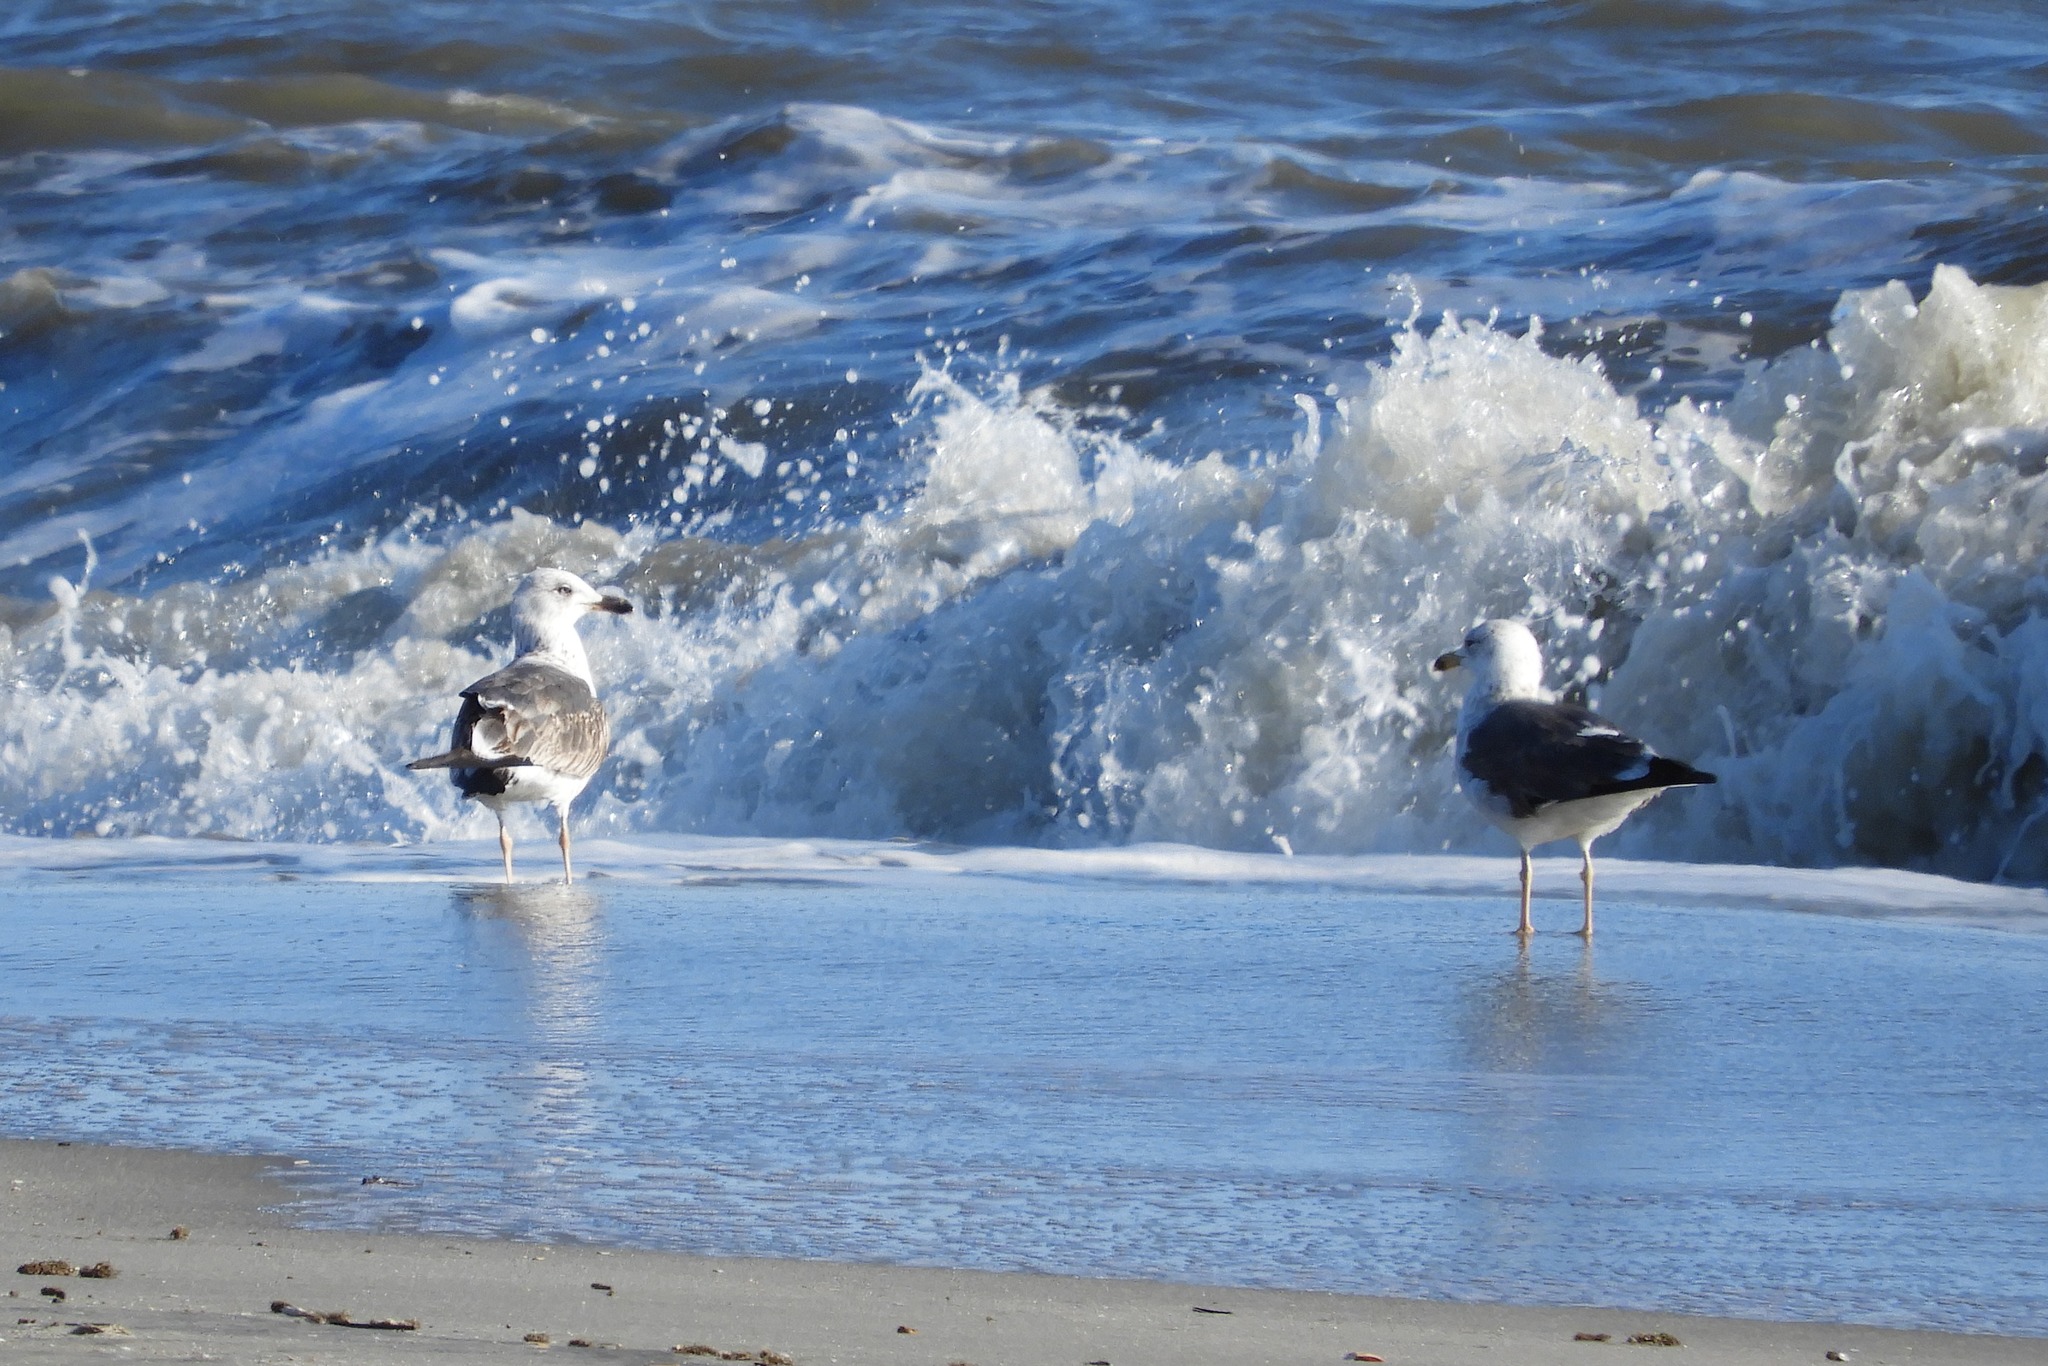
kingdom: Animalia
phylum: Chordata
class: Aves
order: Charadriiformes
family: Laridae
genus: Larus
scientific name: Larus marinus
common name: Great black-backed gull
